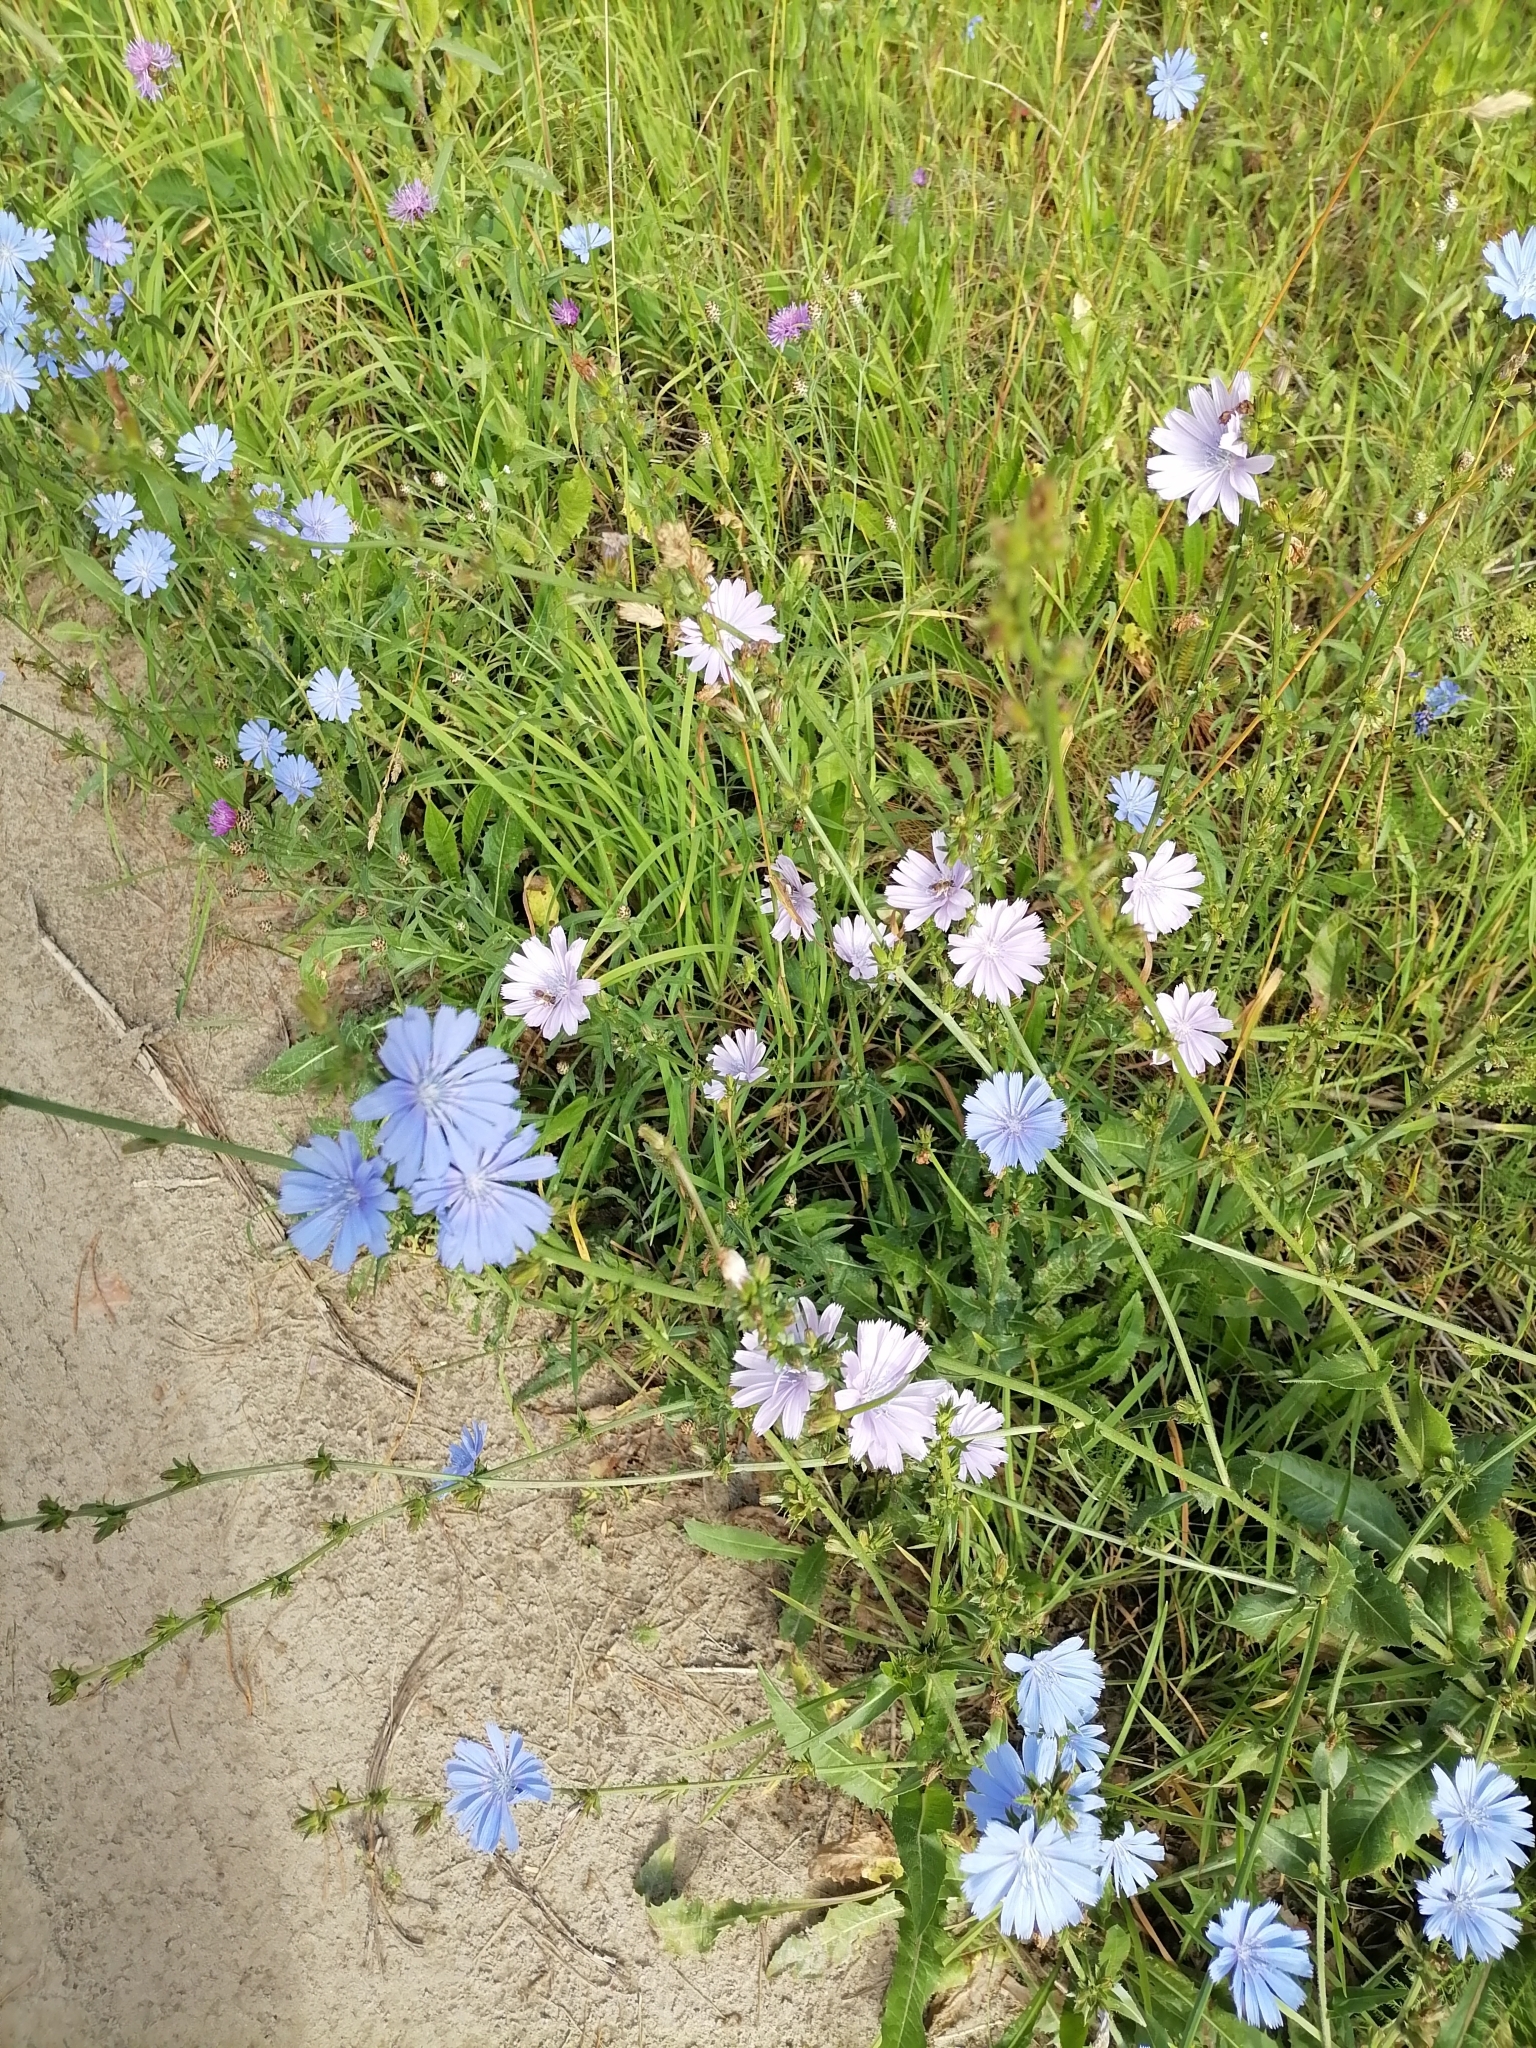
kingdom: Plantae
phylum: Tracheophyta
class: Magnoliopsida
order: Asterales
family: Asteraceae
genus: Cichorium
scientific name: Cichorium intybus
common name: Chicory
